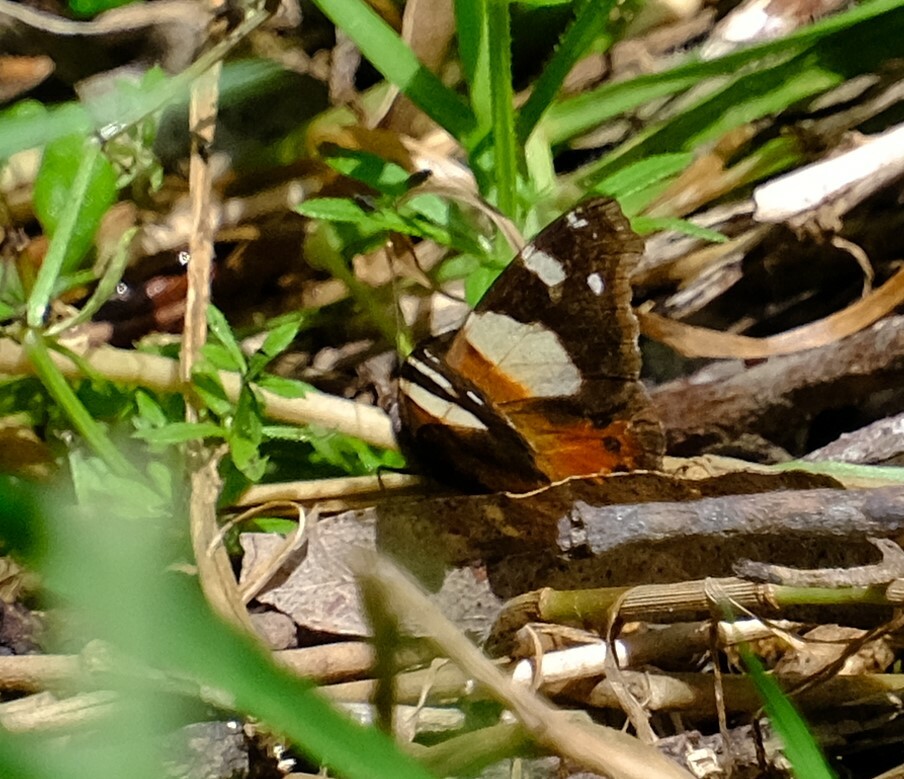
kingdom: Animalia
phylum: Arthropoda
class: Insecta
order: Lepidoptera
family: Nymphalidae
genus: Vanessa
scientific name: Vanessa itea
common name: Yellow admiral
